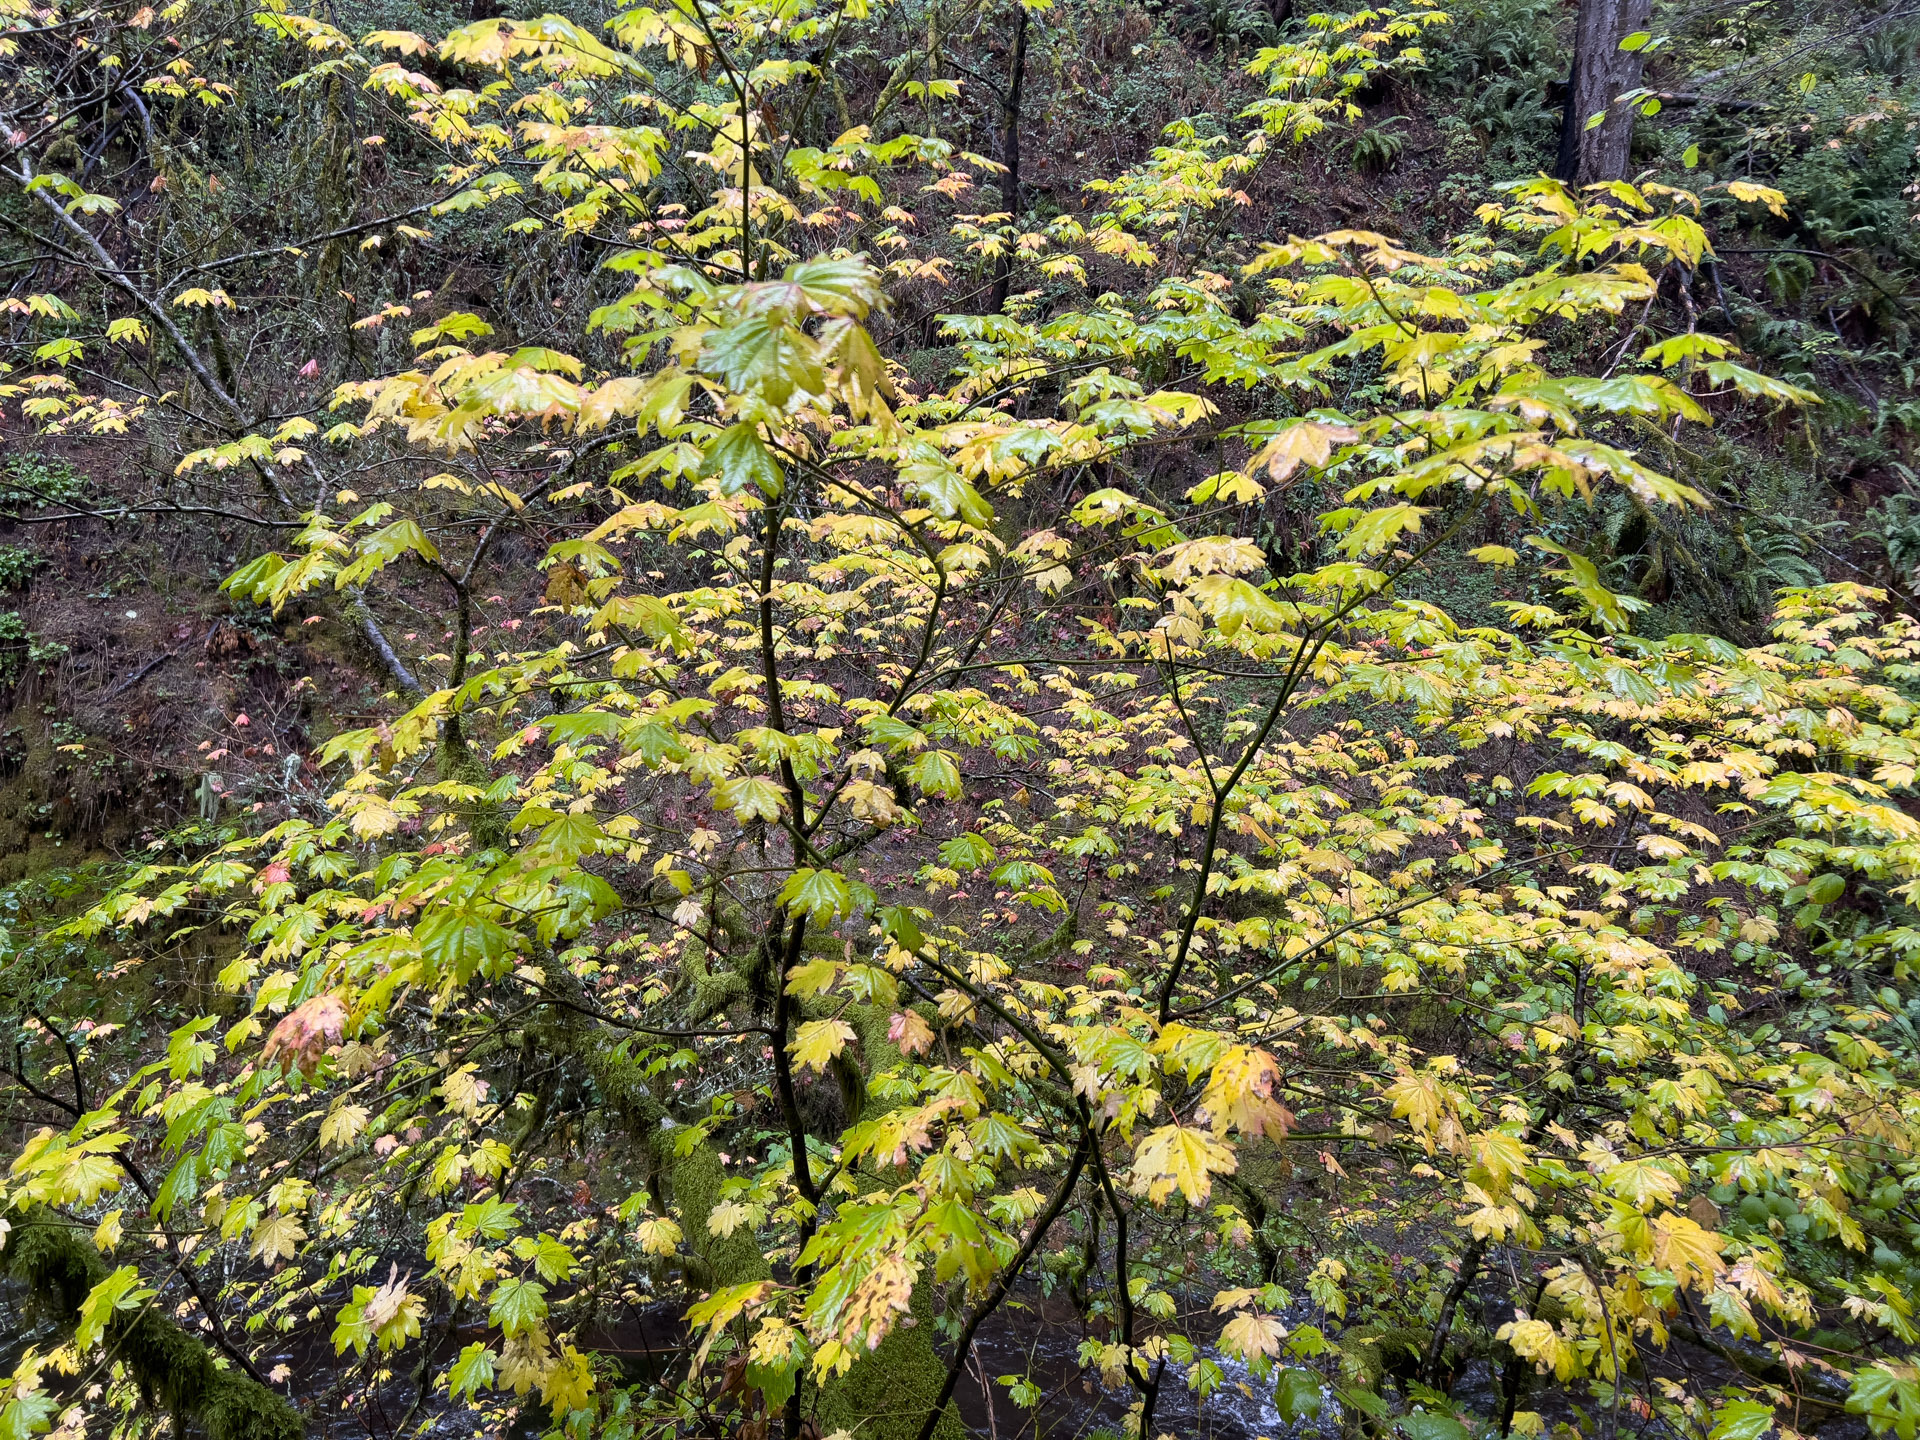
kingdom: Plantae
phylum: Tracheophyta
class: Magnoliopsida
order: Sapindales
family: Sapindaceae
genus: Acer
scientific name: Acer circinatum
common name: Vine maple
